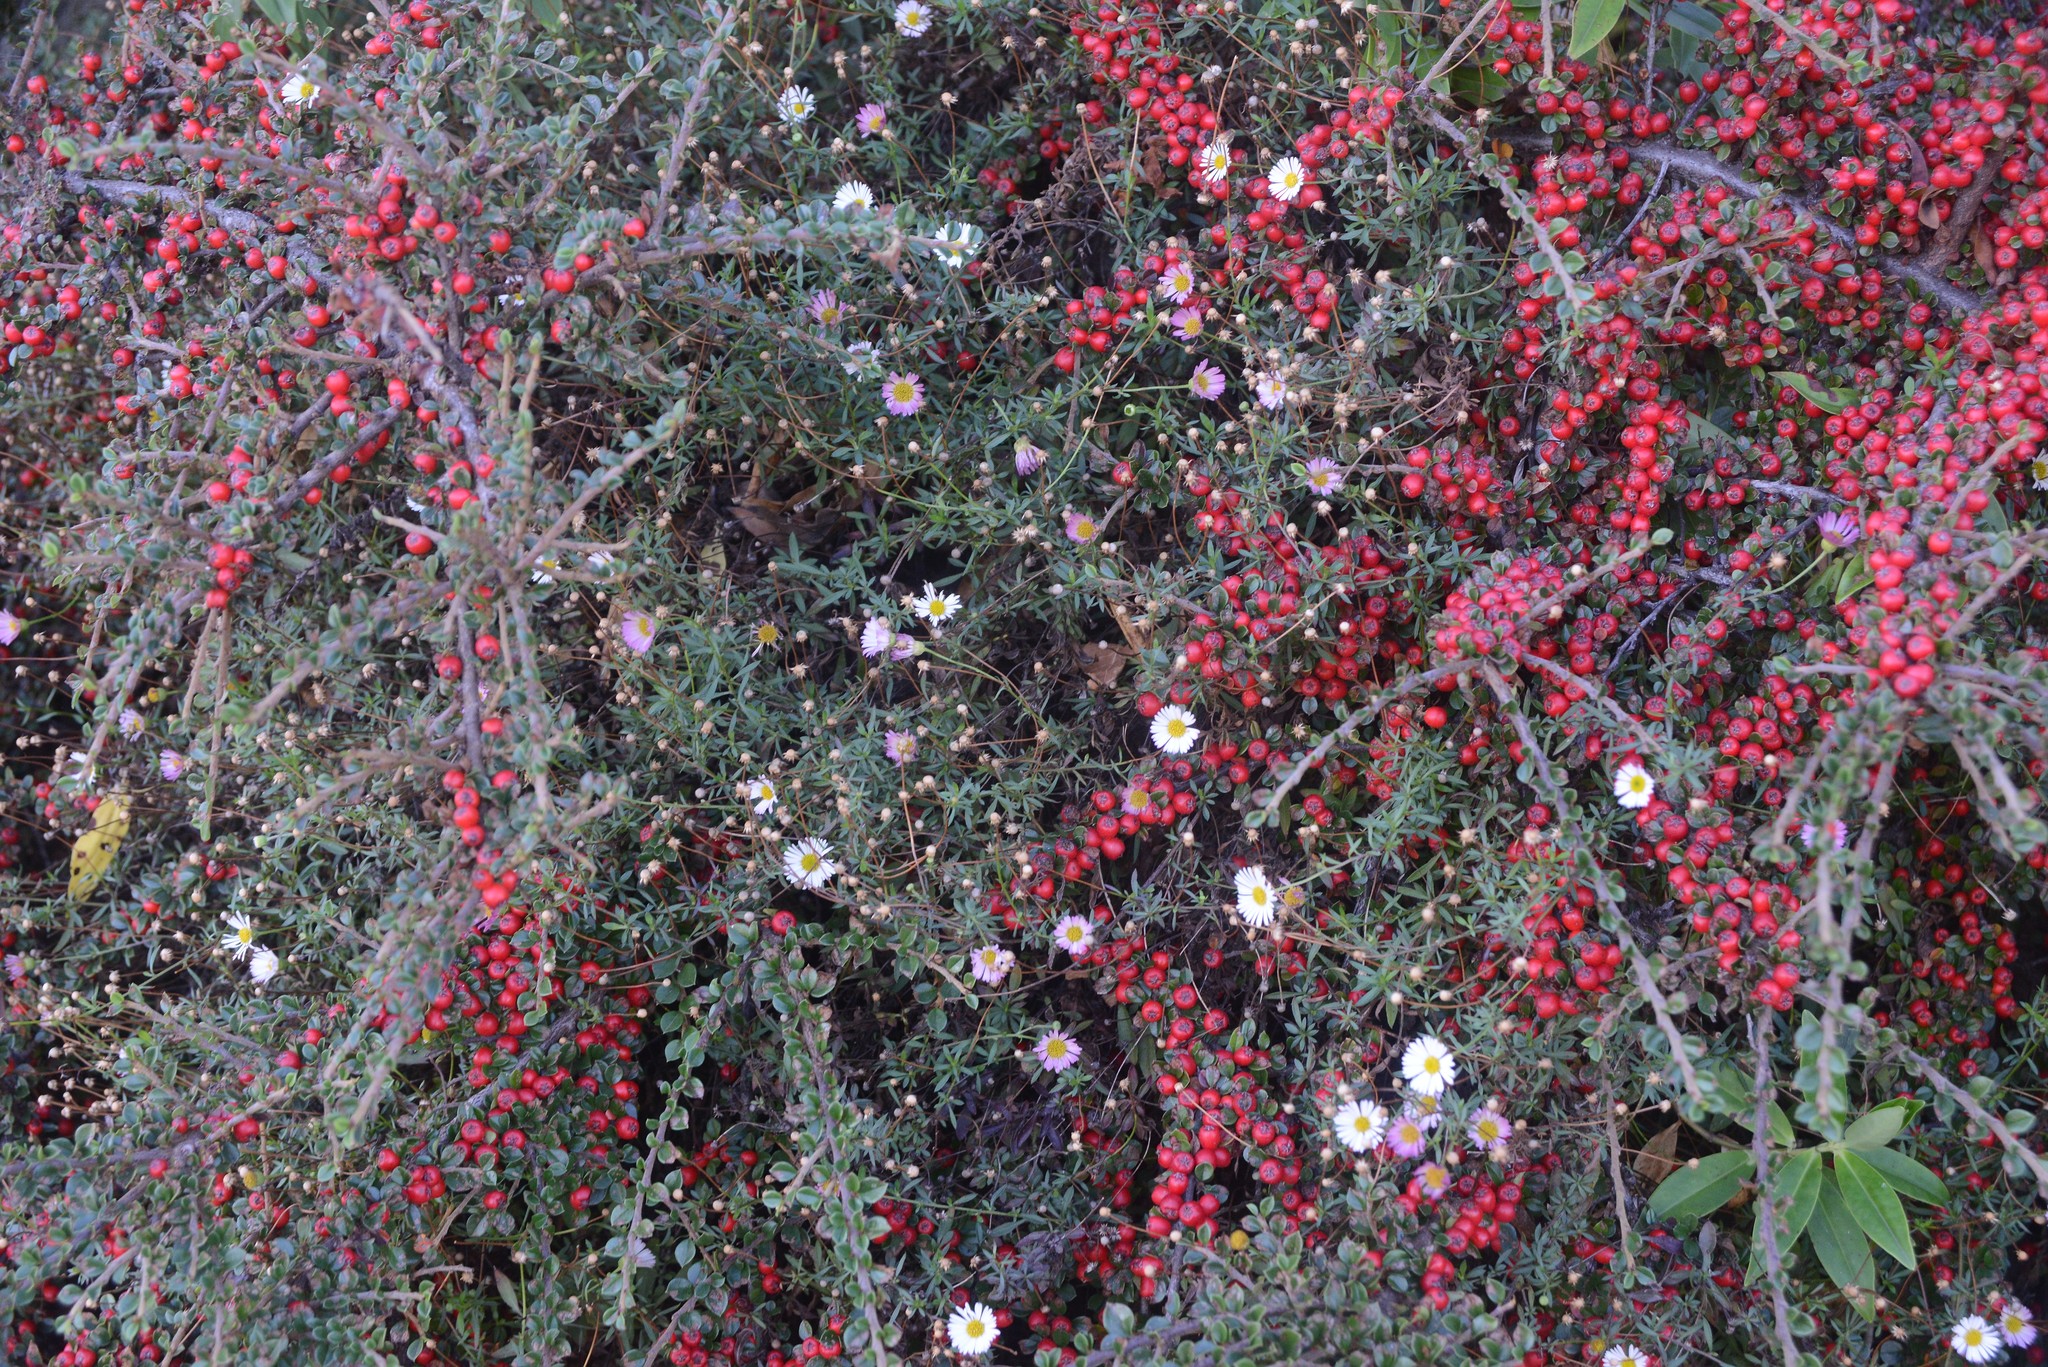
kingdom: Plantae
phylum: Tracheophyta
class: Magnoliopsida
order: Asterales
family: Asteraceae
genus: Erigeron
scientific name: Erigeron karvinskianus
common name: Mexican fleabane
